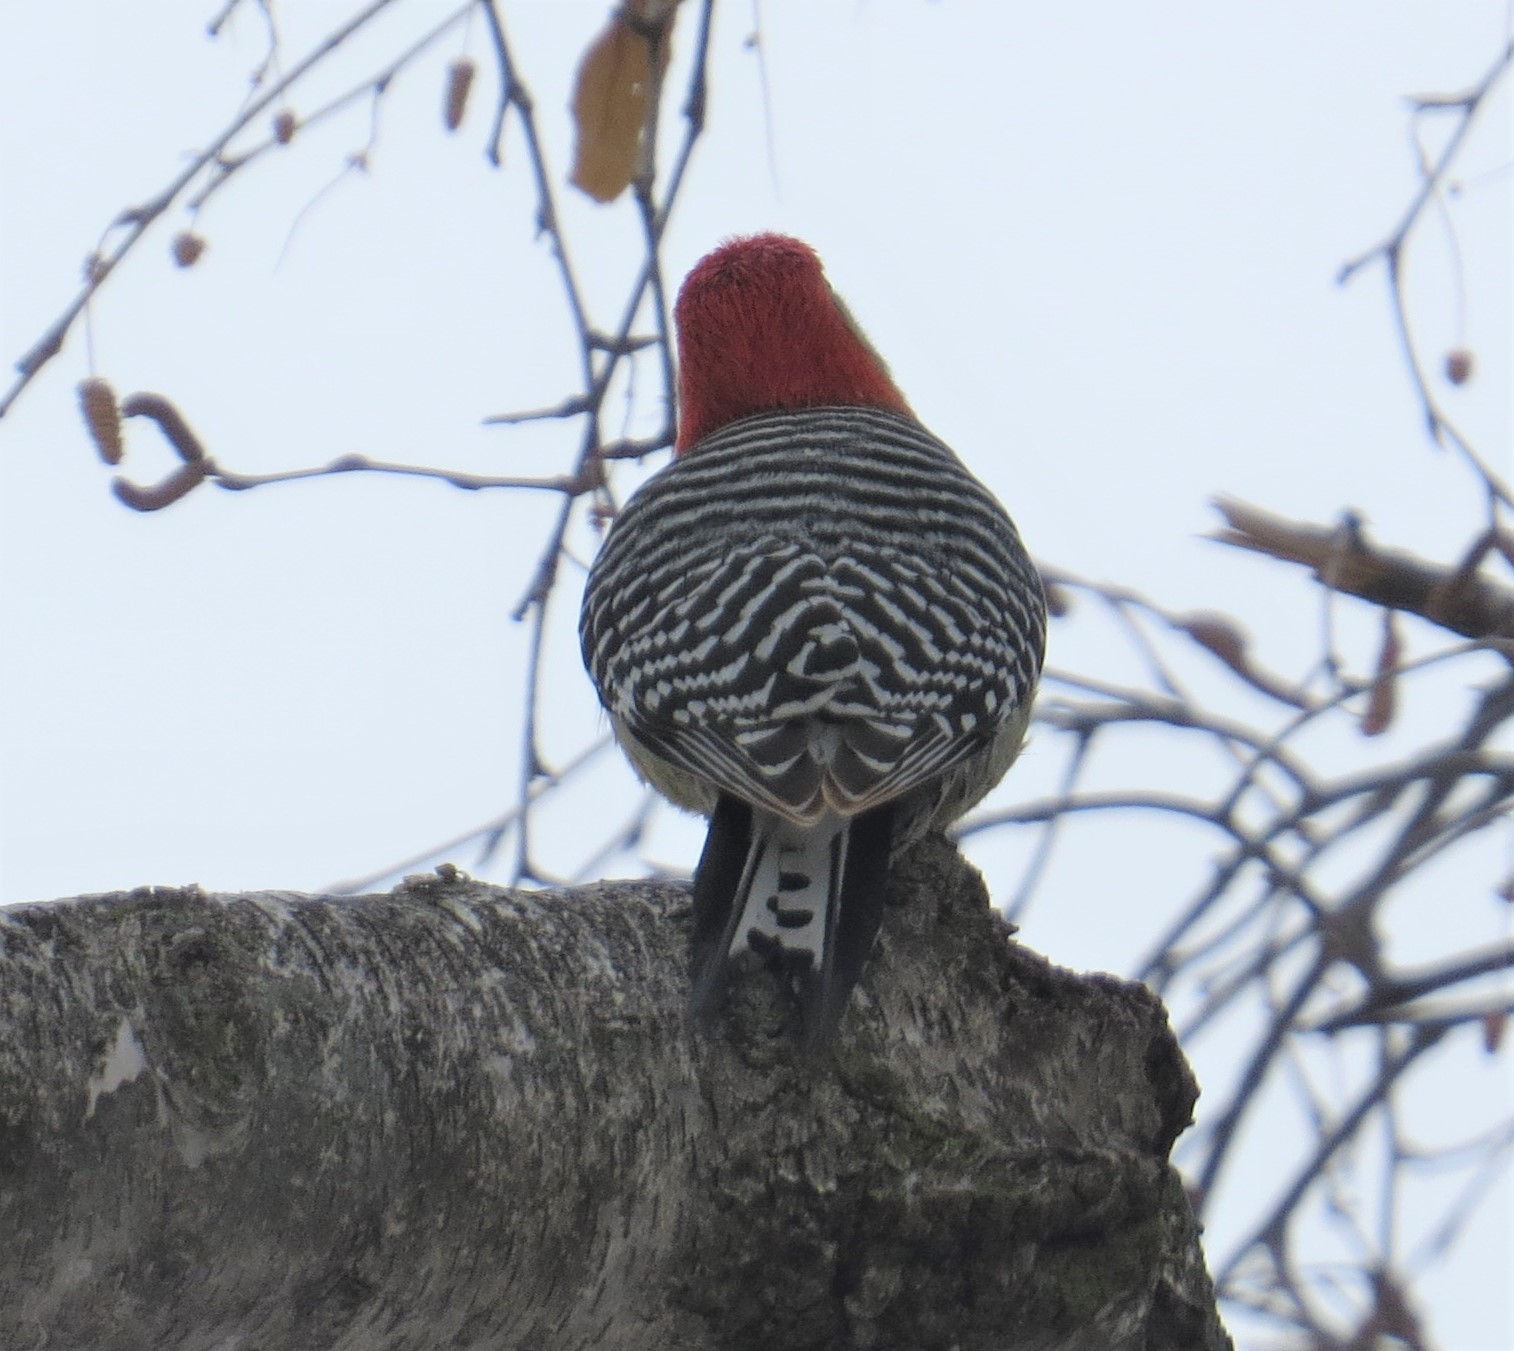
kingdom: Animalia
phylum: Chordata
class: Aves
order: Piciformes
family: Picidae
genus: Melanerpes
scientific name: Melanerpes carolinus
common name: Red-bellied woodpecker
